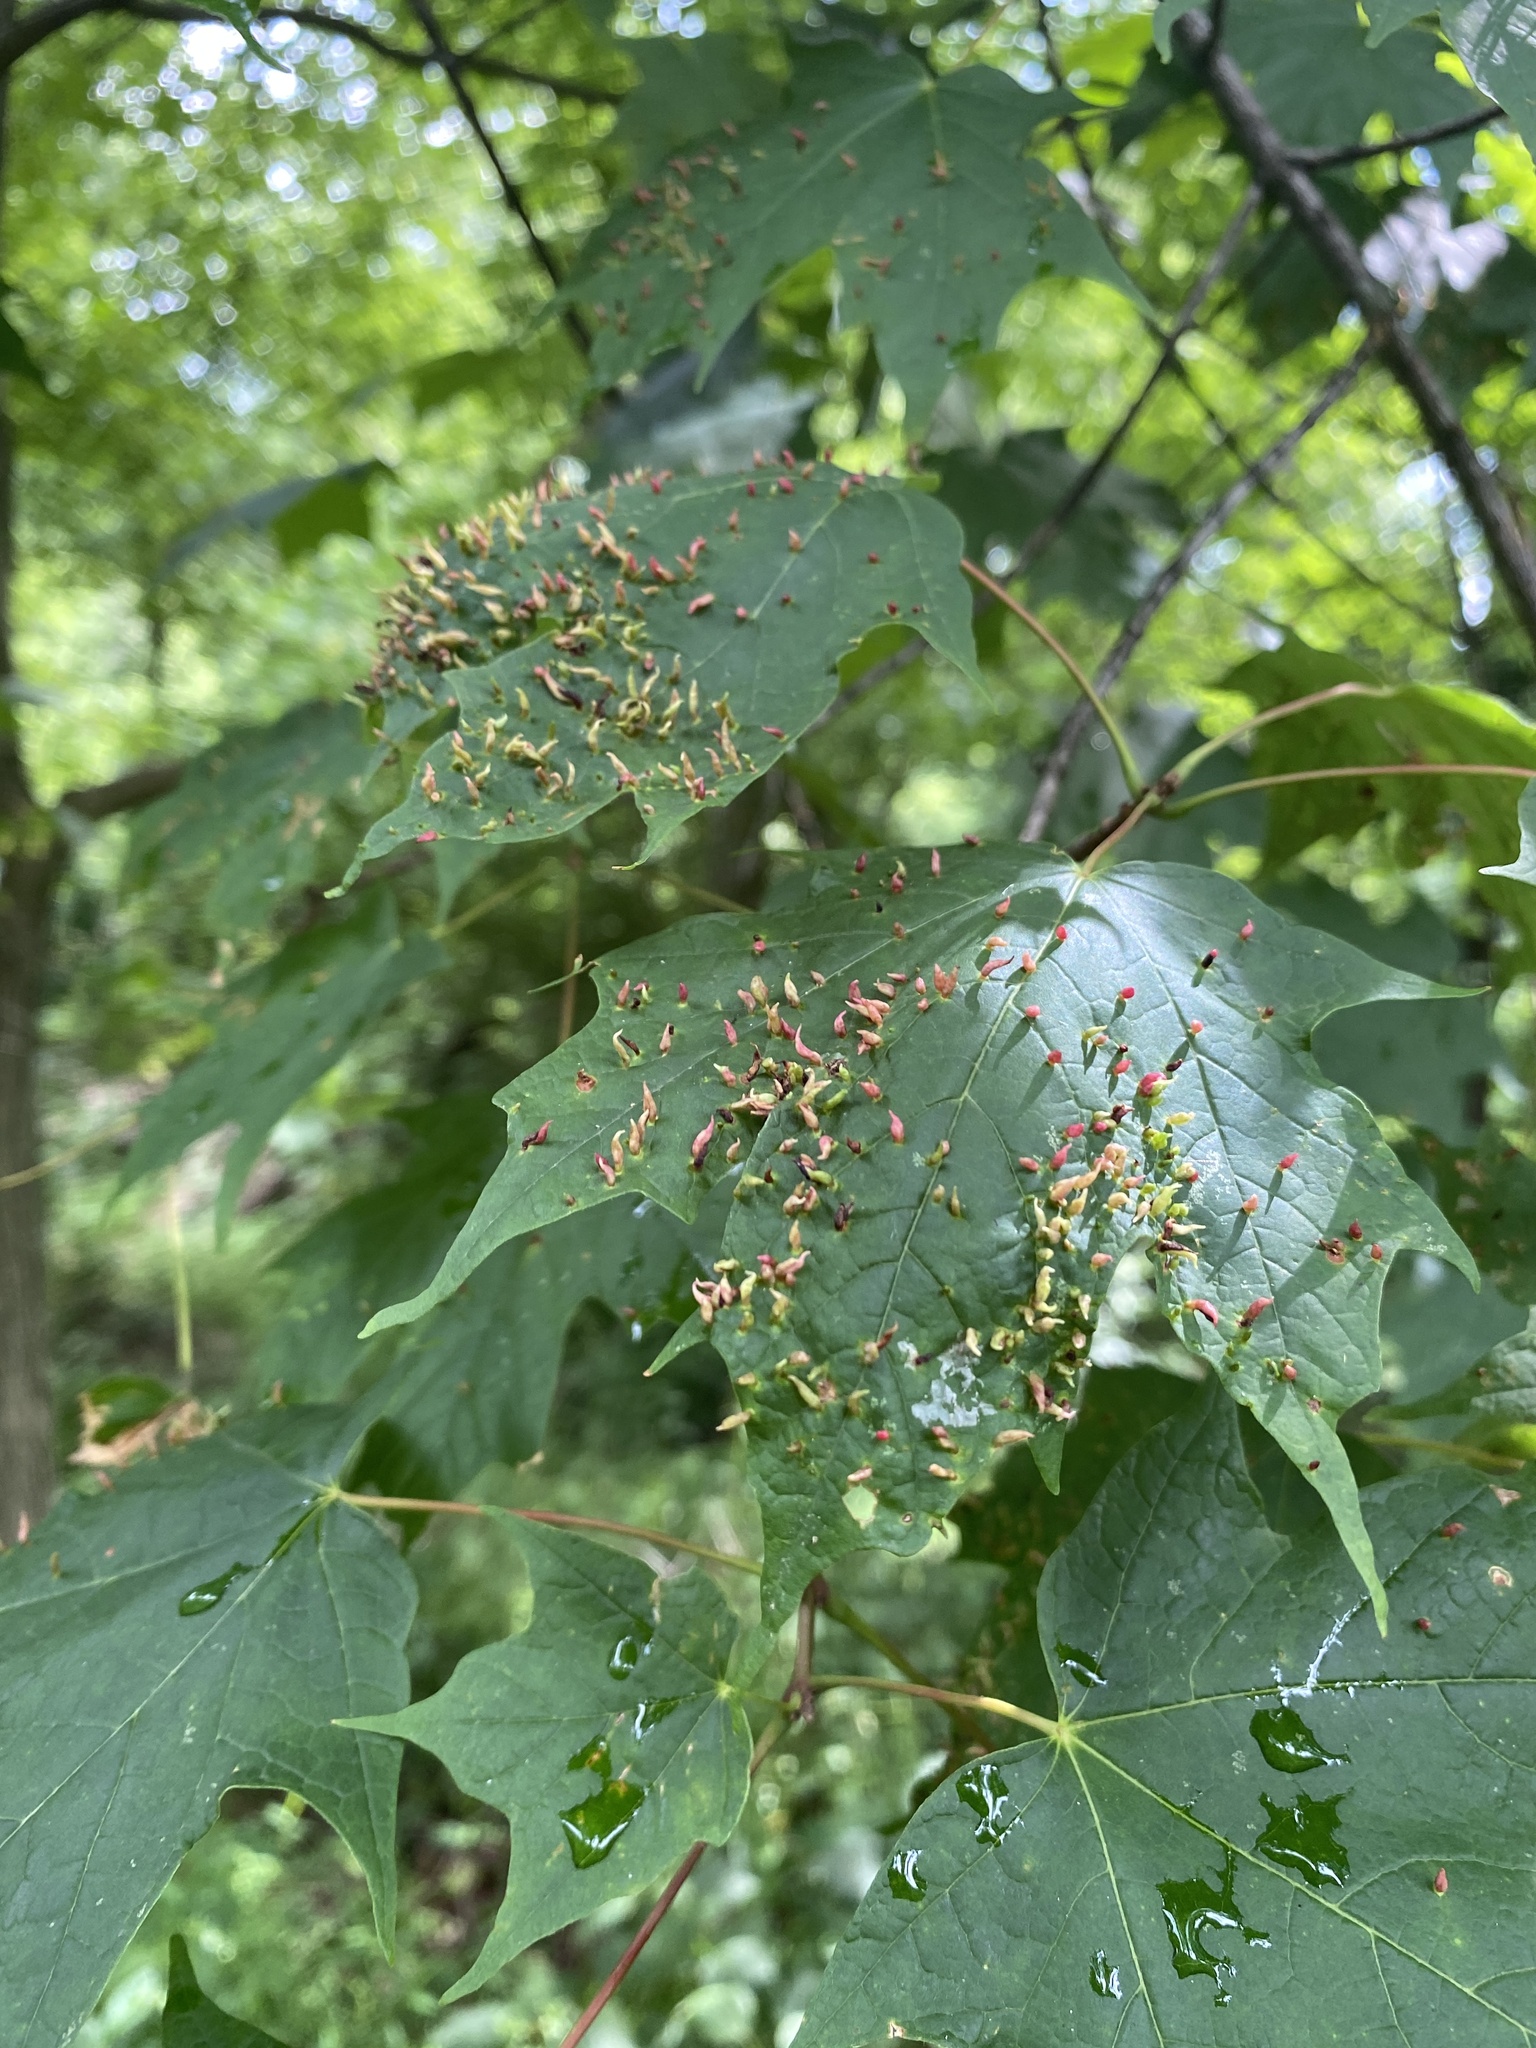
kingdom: Animalia
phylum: Arthropoda
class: Arachnida
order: Trombidiformes
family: Eriophyidae
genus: Vasates
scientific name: Vasates aceriscrumena
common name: Maple spindle gall mite
